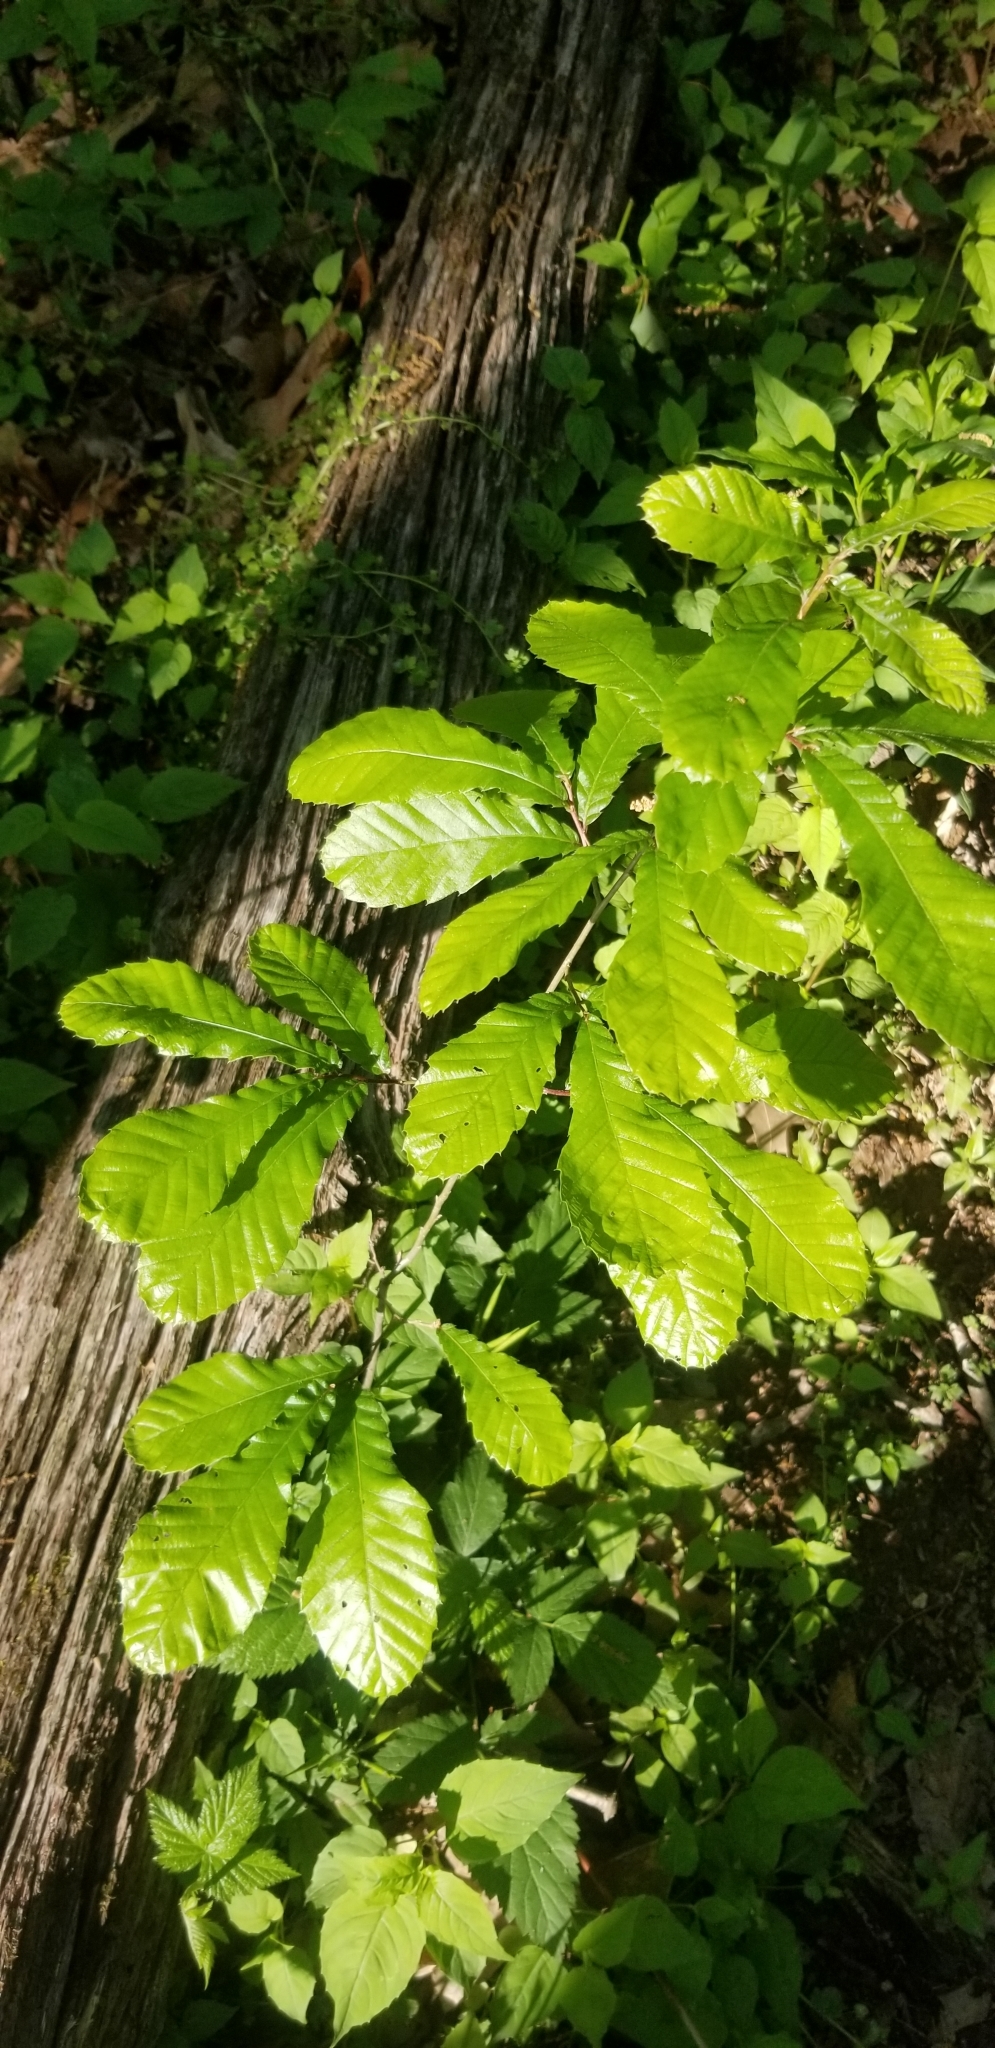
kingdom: Plantae
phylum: Tracheophyta
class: Magnoliopsida
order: Fagales
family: Fagaceae
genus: Castanea
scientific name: Castanea pumila
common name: Chinkapin
